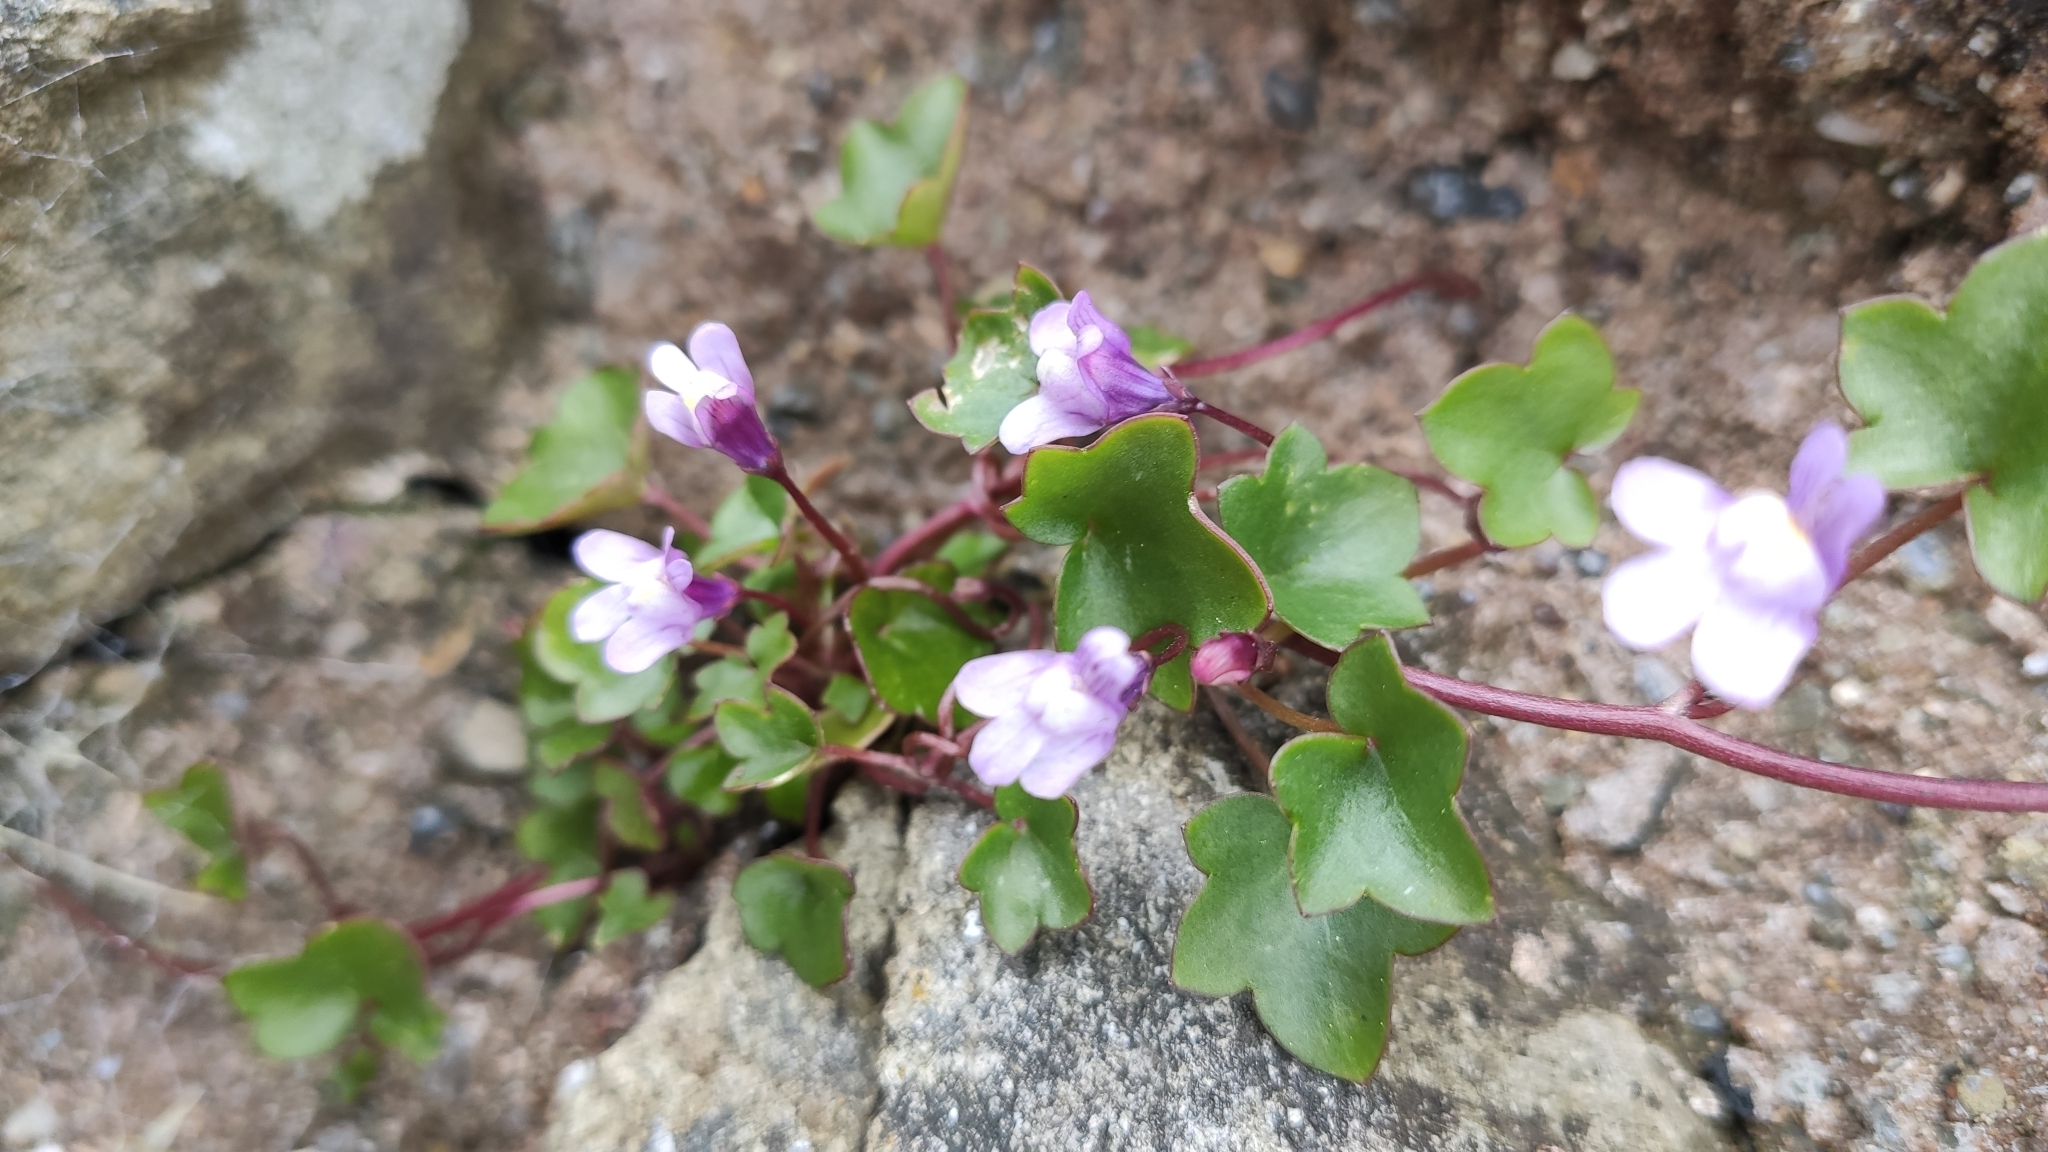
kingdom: Plantae
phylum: Tracheophyta
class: Magnoliopsida
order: Lamiales
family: Plantaginaceae
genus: Cymbalaria
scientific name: Cymbalaria muralis
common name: Ivy-leaved toadflax
